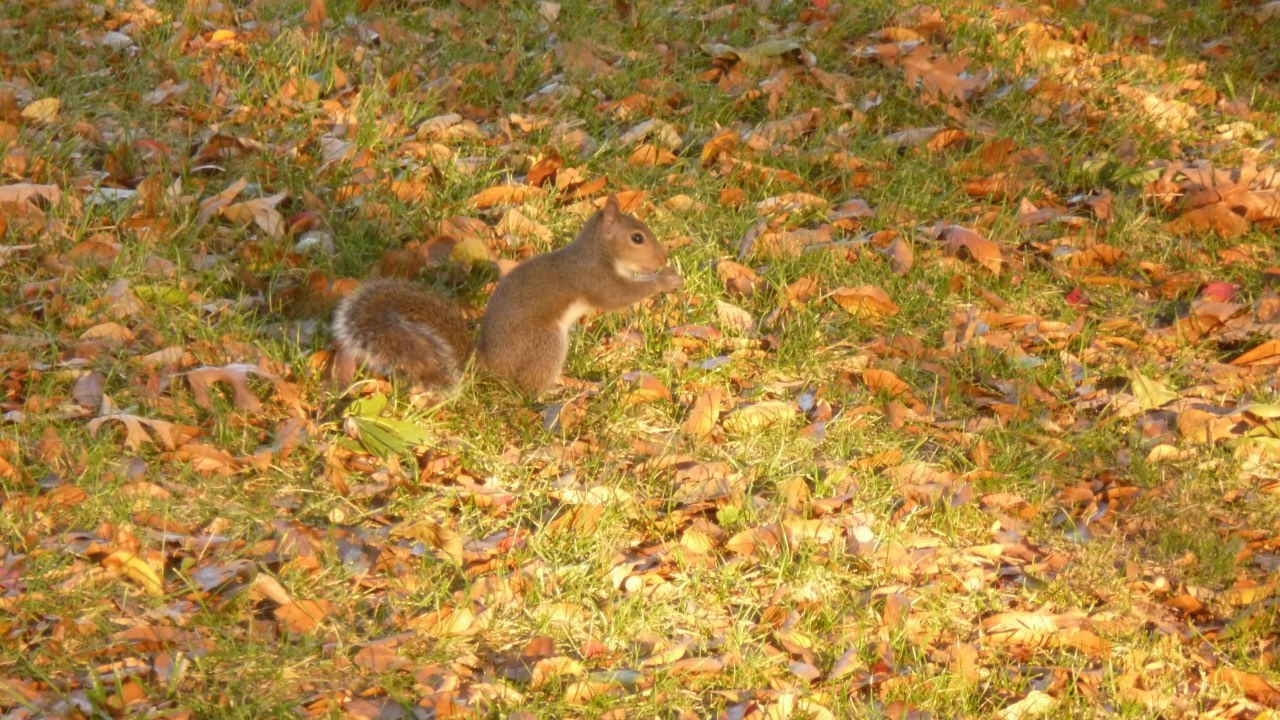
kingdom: Animalia
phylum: Chordata
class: Mammalia
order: Rodentia
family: Sciuridae
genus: Sciurus
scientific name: Sciurus carolinensis
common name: Eastern gray squirrel
